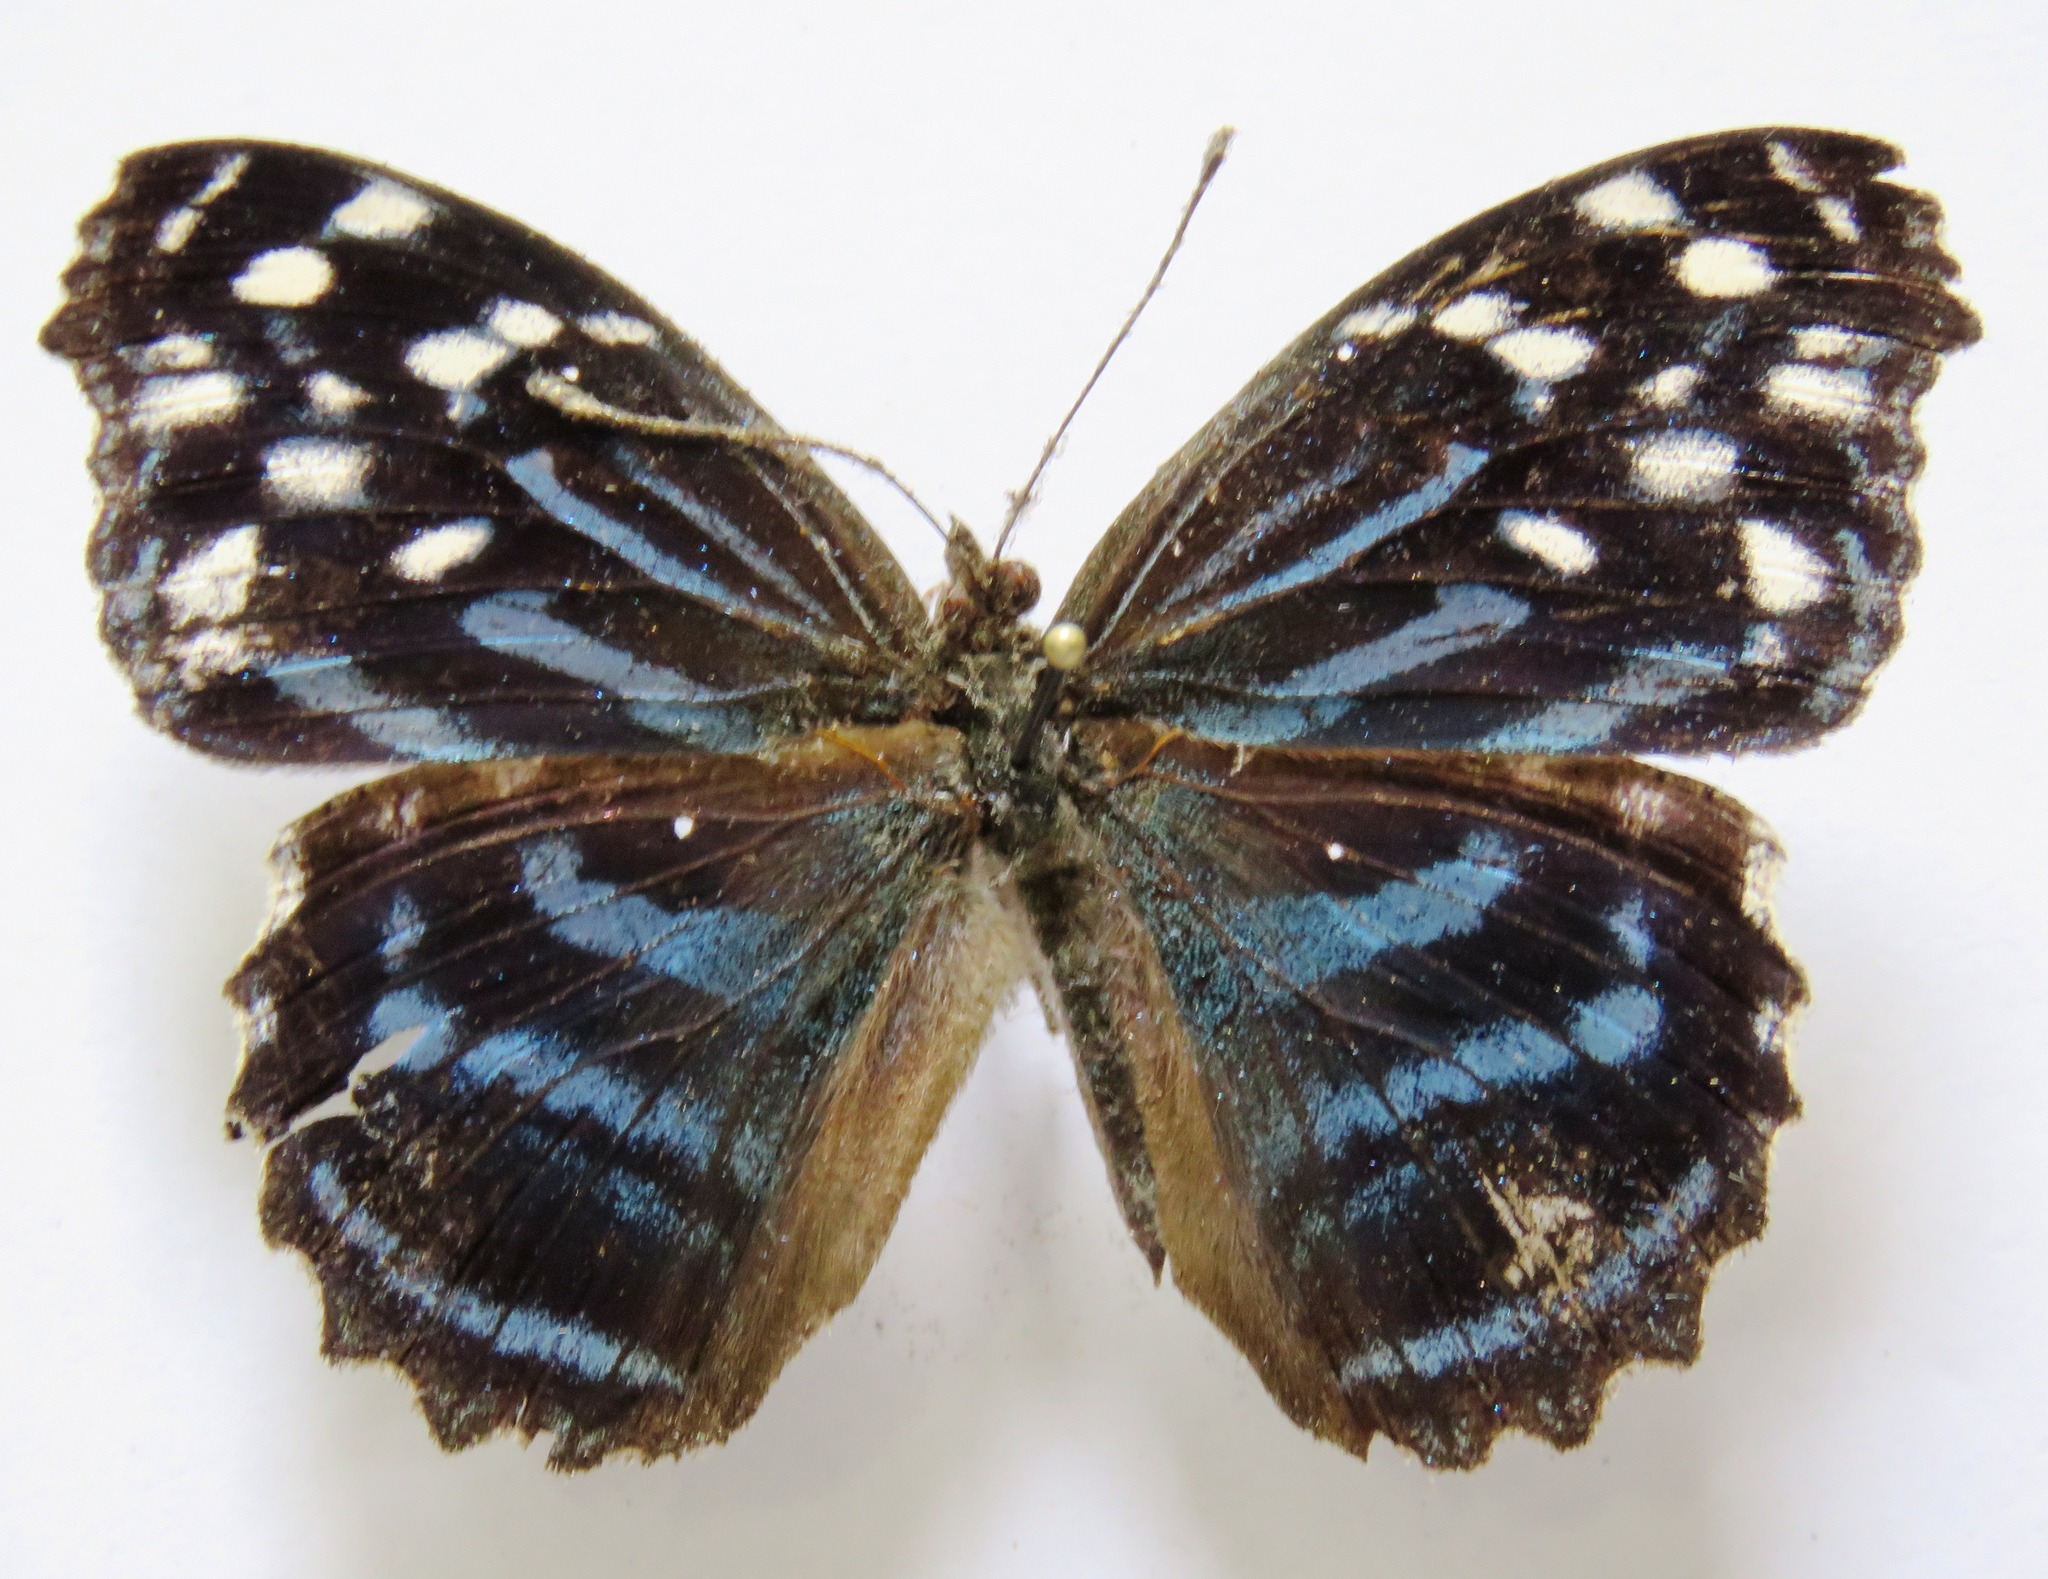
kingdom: Animalia
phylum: Arthropoda
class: Insecta
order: Lepidoptera
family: Nymphalidae
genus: Myscelia
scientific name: Myscelia ethusa
